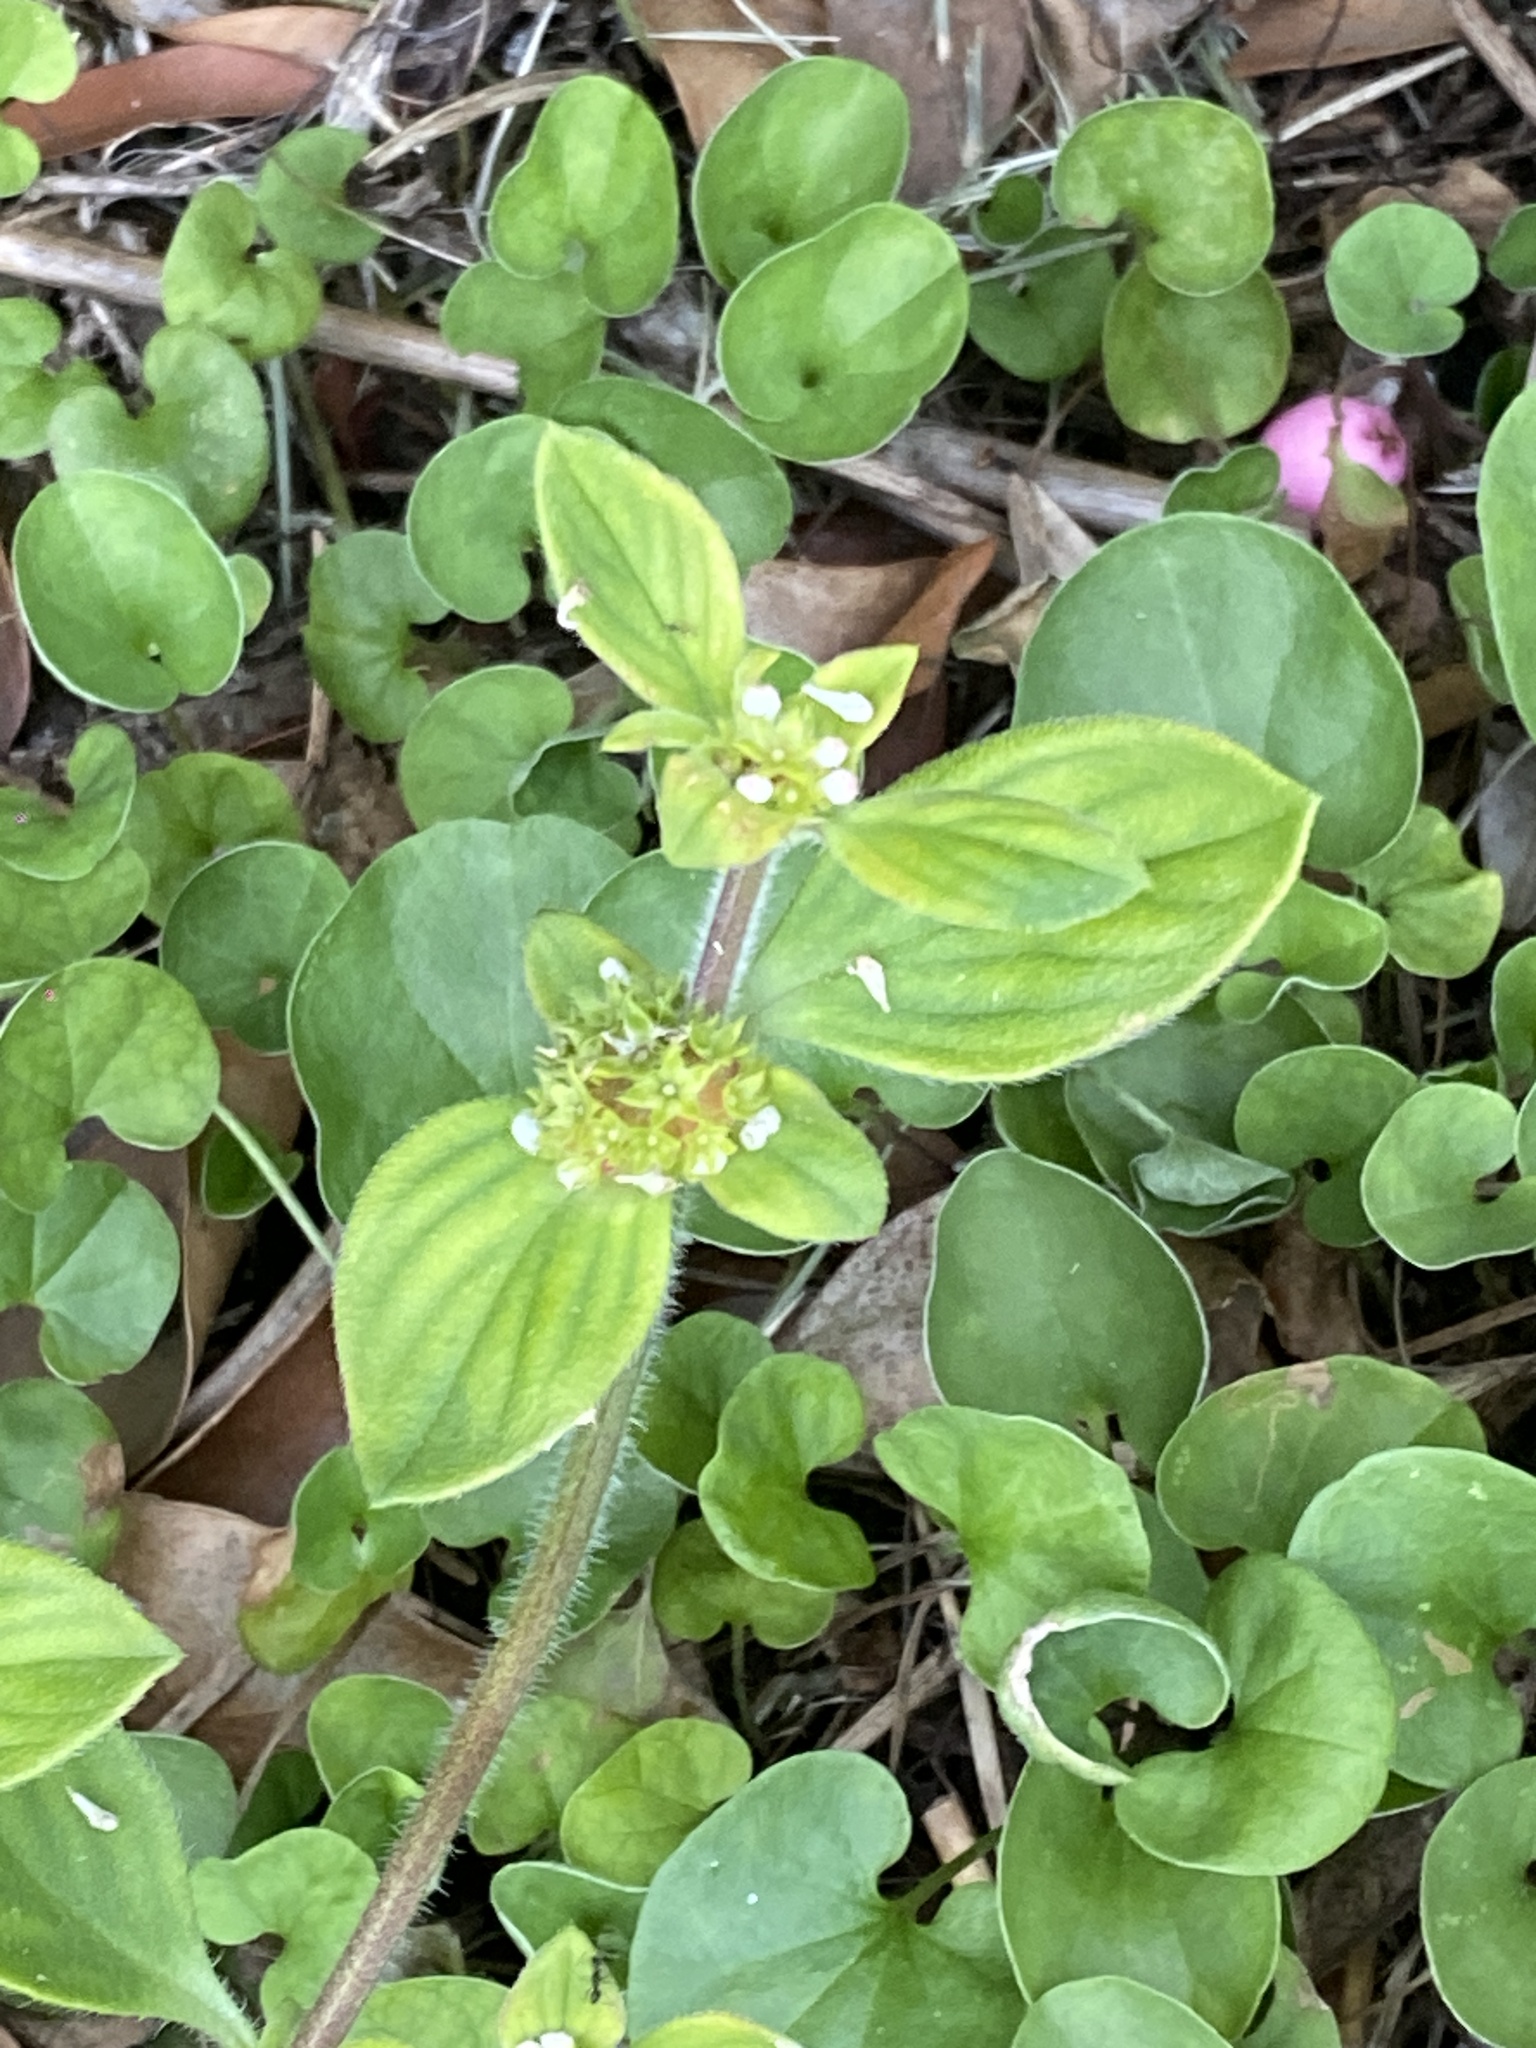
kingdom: Plantae
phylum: Tracheophyta
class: Magnoliopsida
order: Gentianales
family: Rubiaceae
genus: Richardia
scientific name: Richardia brasiliensis
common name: Tropical mexican clover
